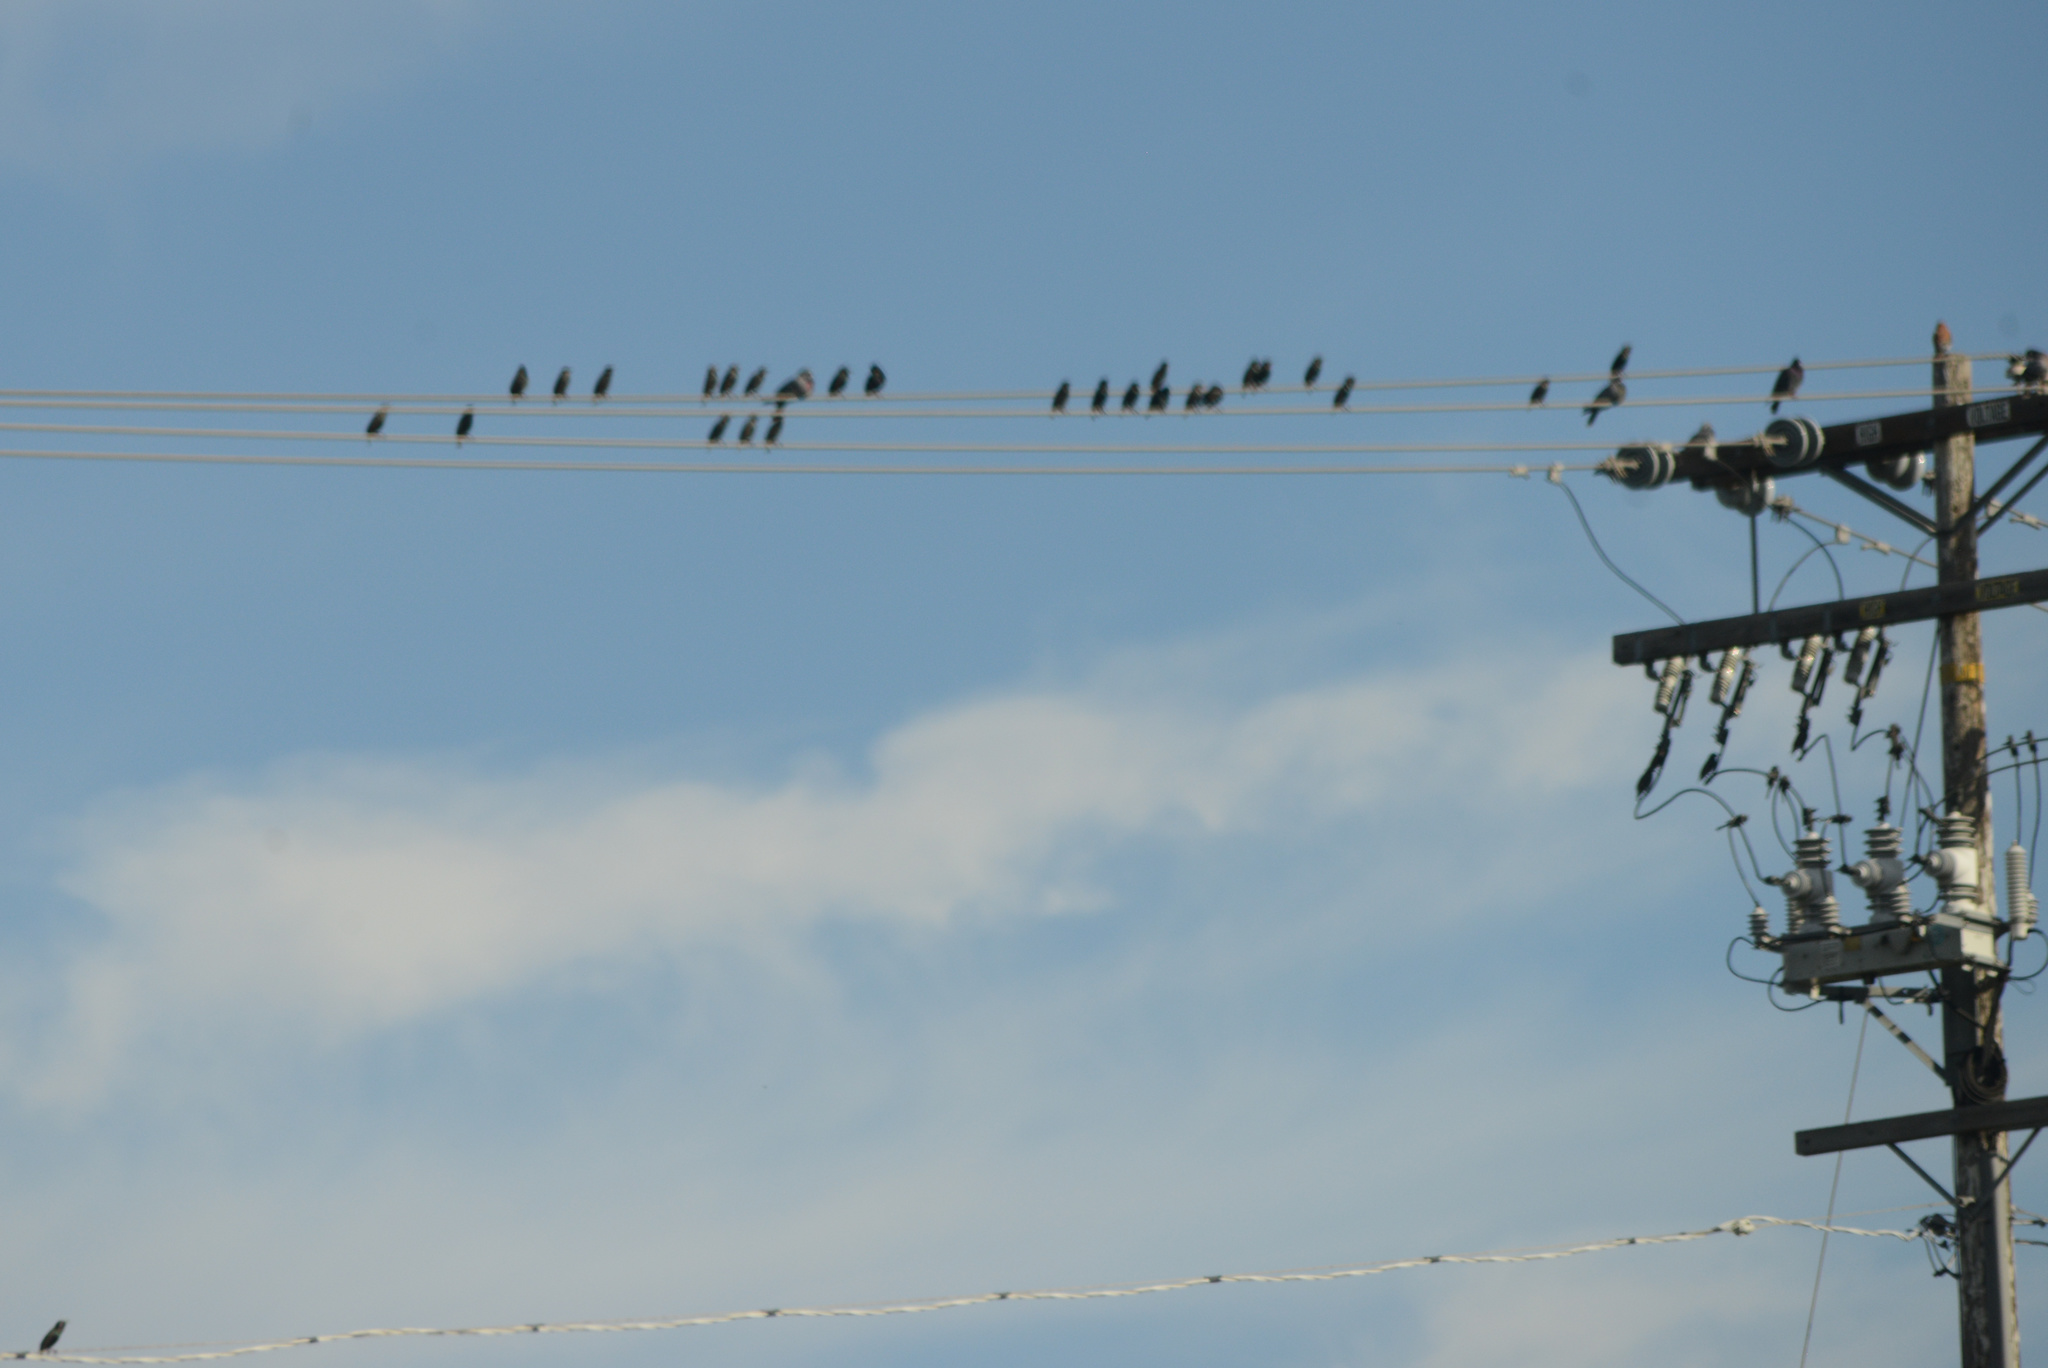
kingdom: Animalia
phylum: Chordata
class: Aves
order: Passeriformes
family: Sturnidae
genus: Sturnus
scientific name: Sturnus vulgaris
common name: Common starling
